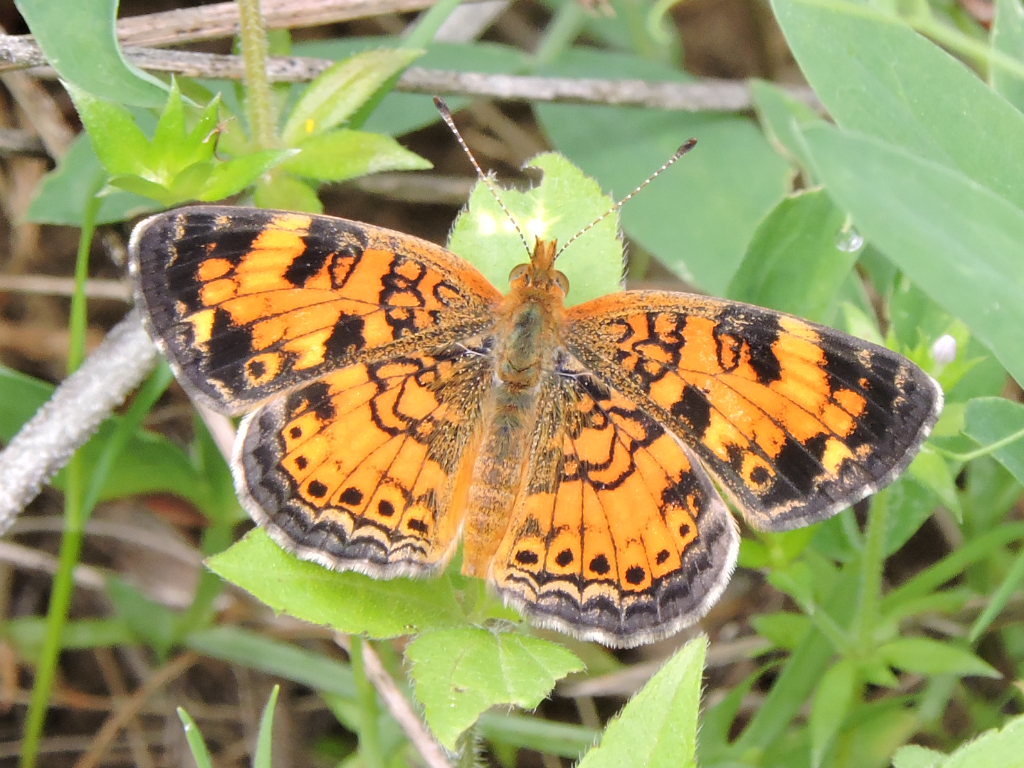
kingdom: Animalia
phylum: Arthropoda
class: Insecta
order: Lepidoptera
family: Nymphalidae
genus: Phyciodes
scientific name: Phyciodes tharos
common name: Pearl crescent
